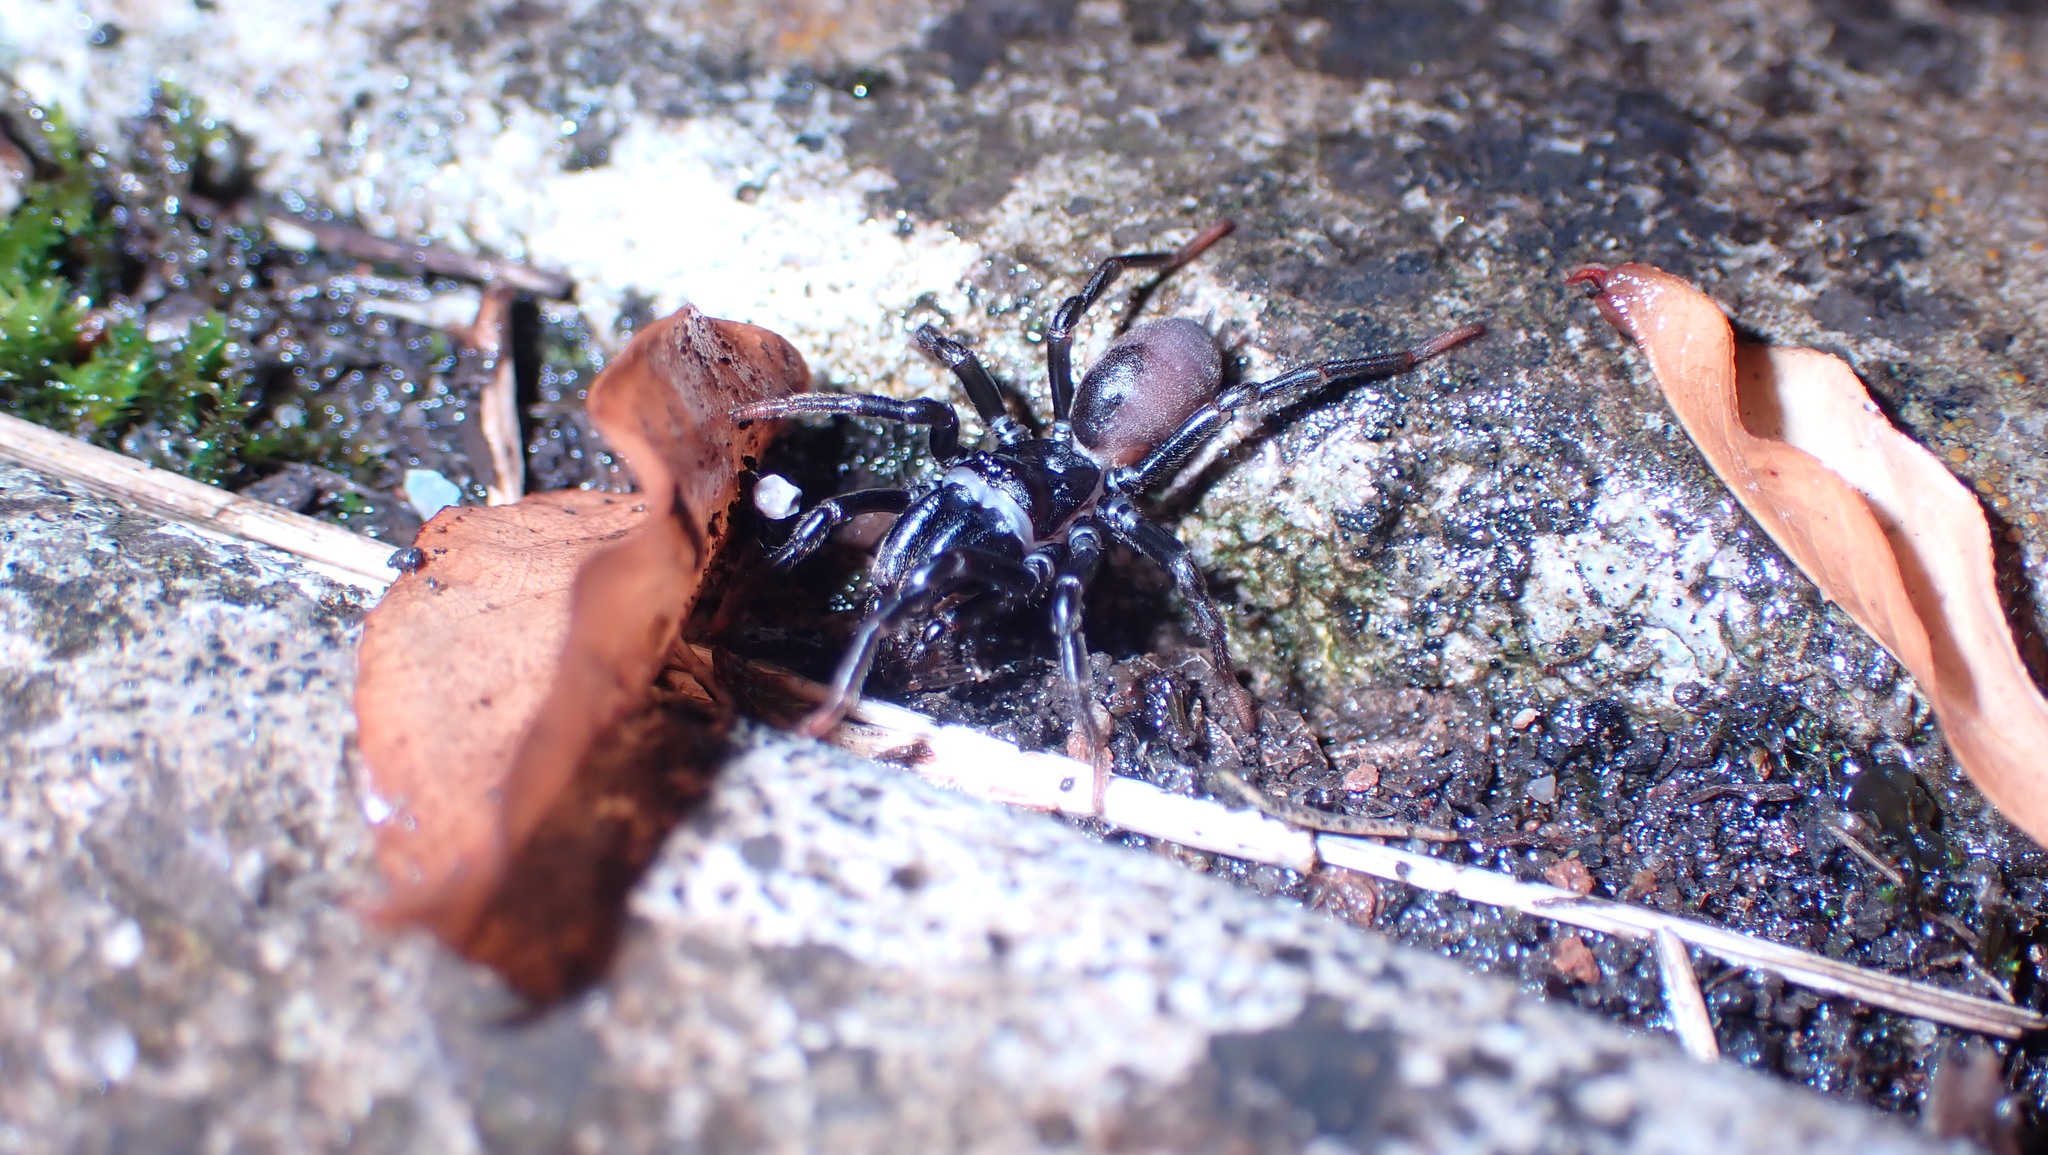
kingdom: Animalia
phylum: Arthropoda
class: Arachnida
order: Araneae
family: Atypidae
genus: Atypus
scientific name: Atypus affinis
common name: Purse web spider
